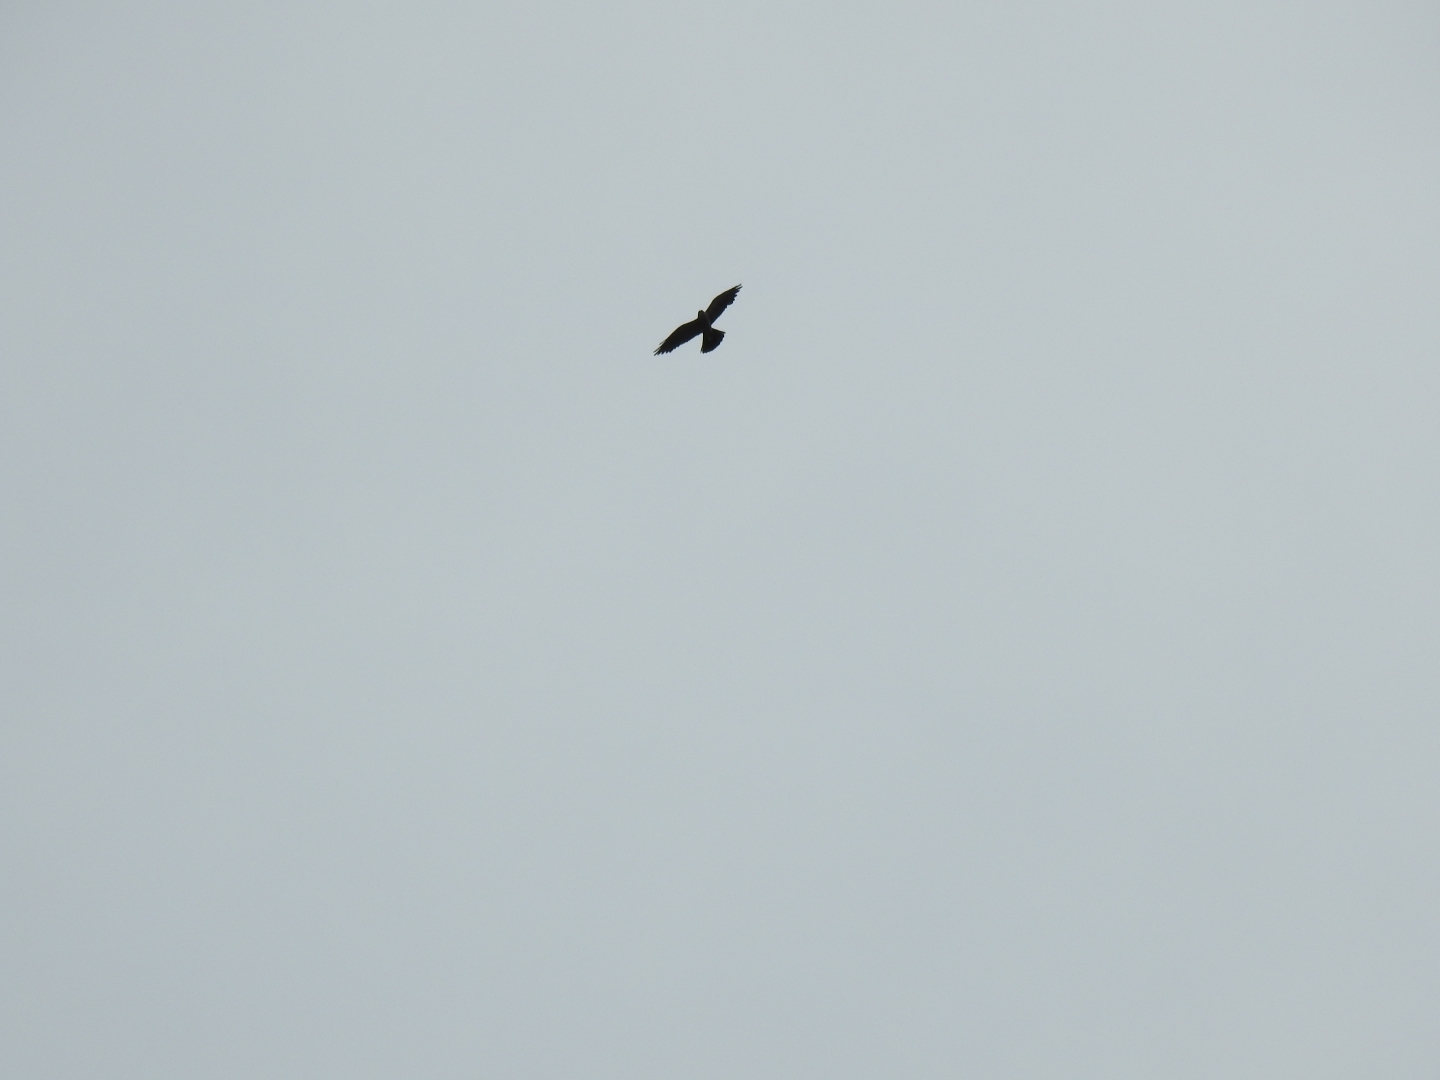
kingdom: Animalia
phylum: Chordata
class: Aves
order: Accipitriformes
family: Accipitridae
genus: Ictinia
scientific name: Ictinia mississippiensis
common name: Mississippi kite
